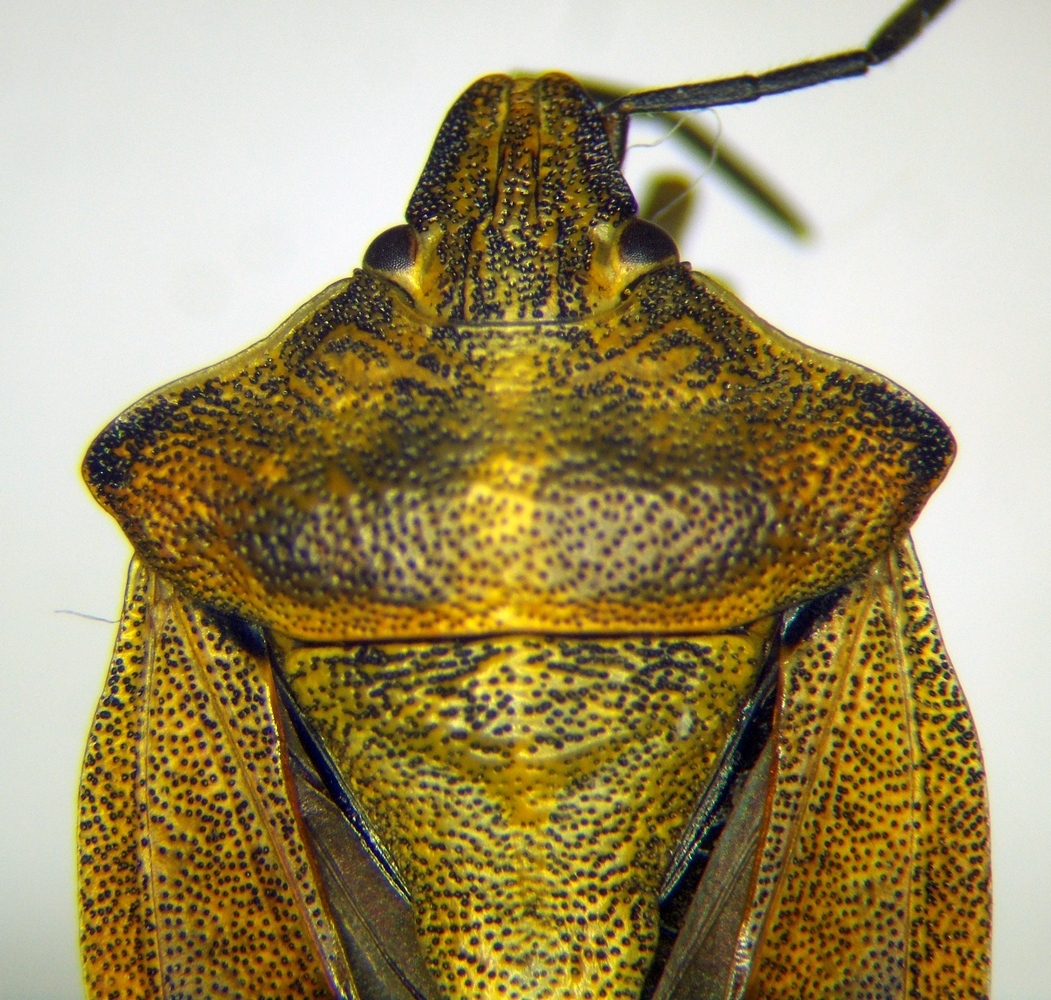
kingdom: Animalia
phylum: Arthropoda
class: Insecta
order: Hemiptera
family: Pentatomidae
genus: Carpocoris
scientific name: Carpocoris purpureipennis
